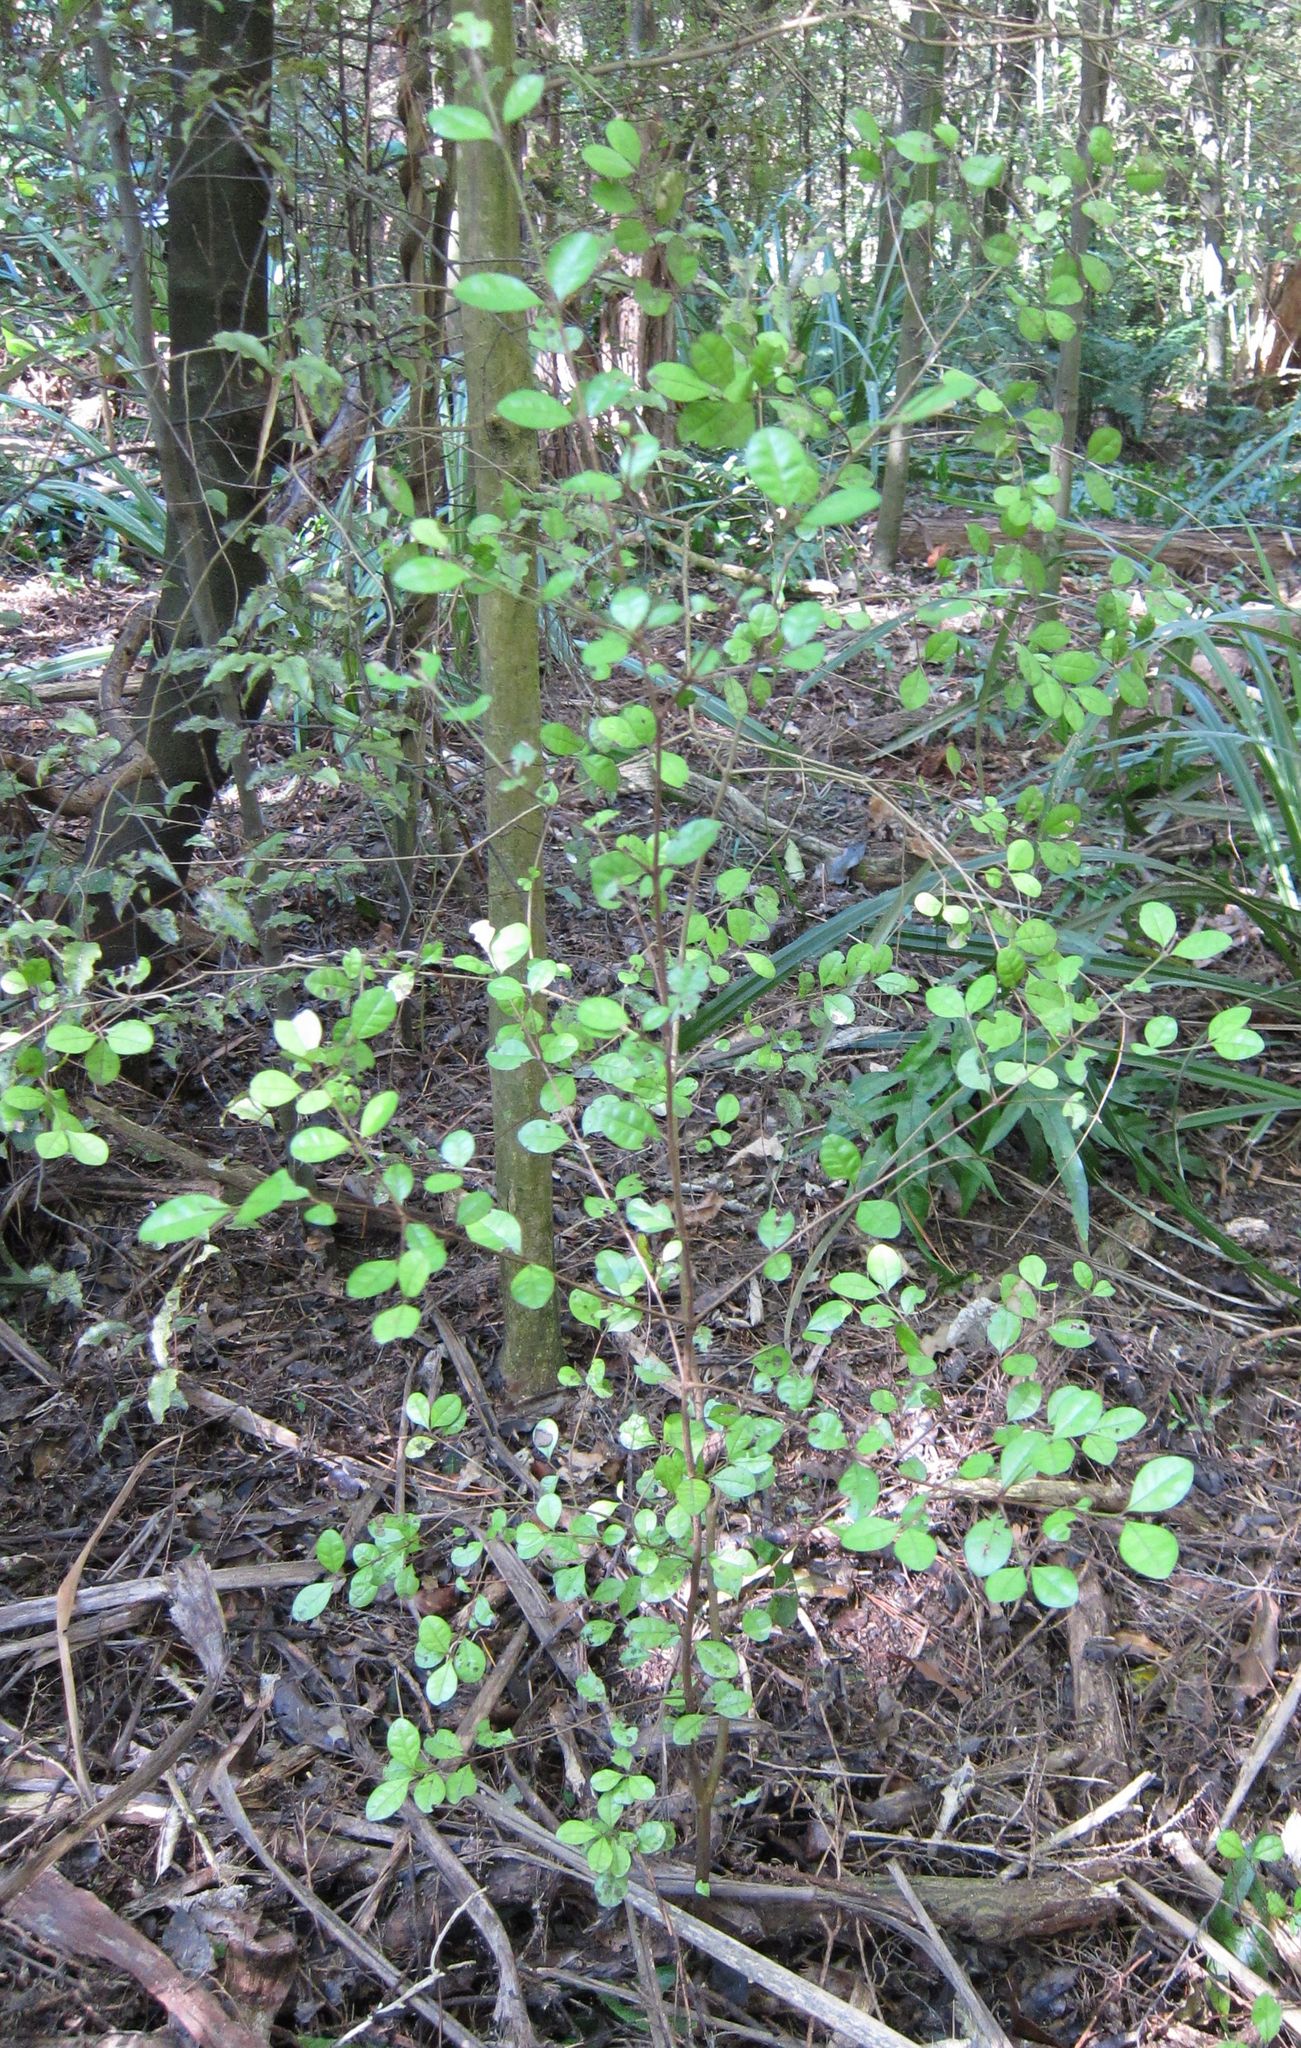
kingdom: Plantae
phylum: Tracheophyta
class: Magnoliopsida
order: Myrtales
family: Myrtaceae
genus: Lophomyrtus
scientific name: Lophomyrtus ralphii
